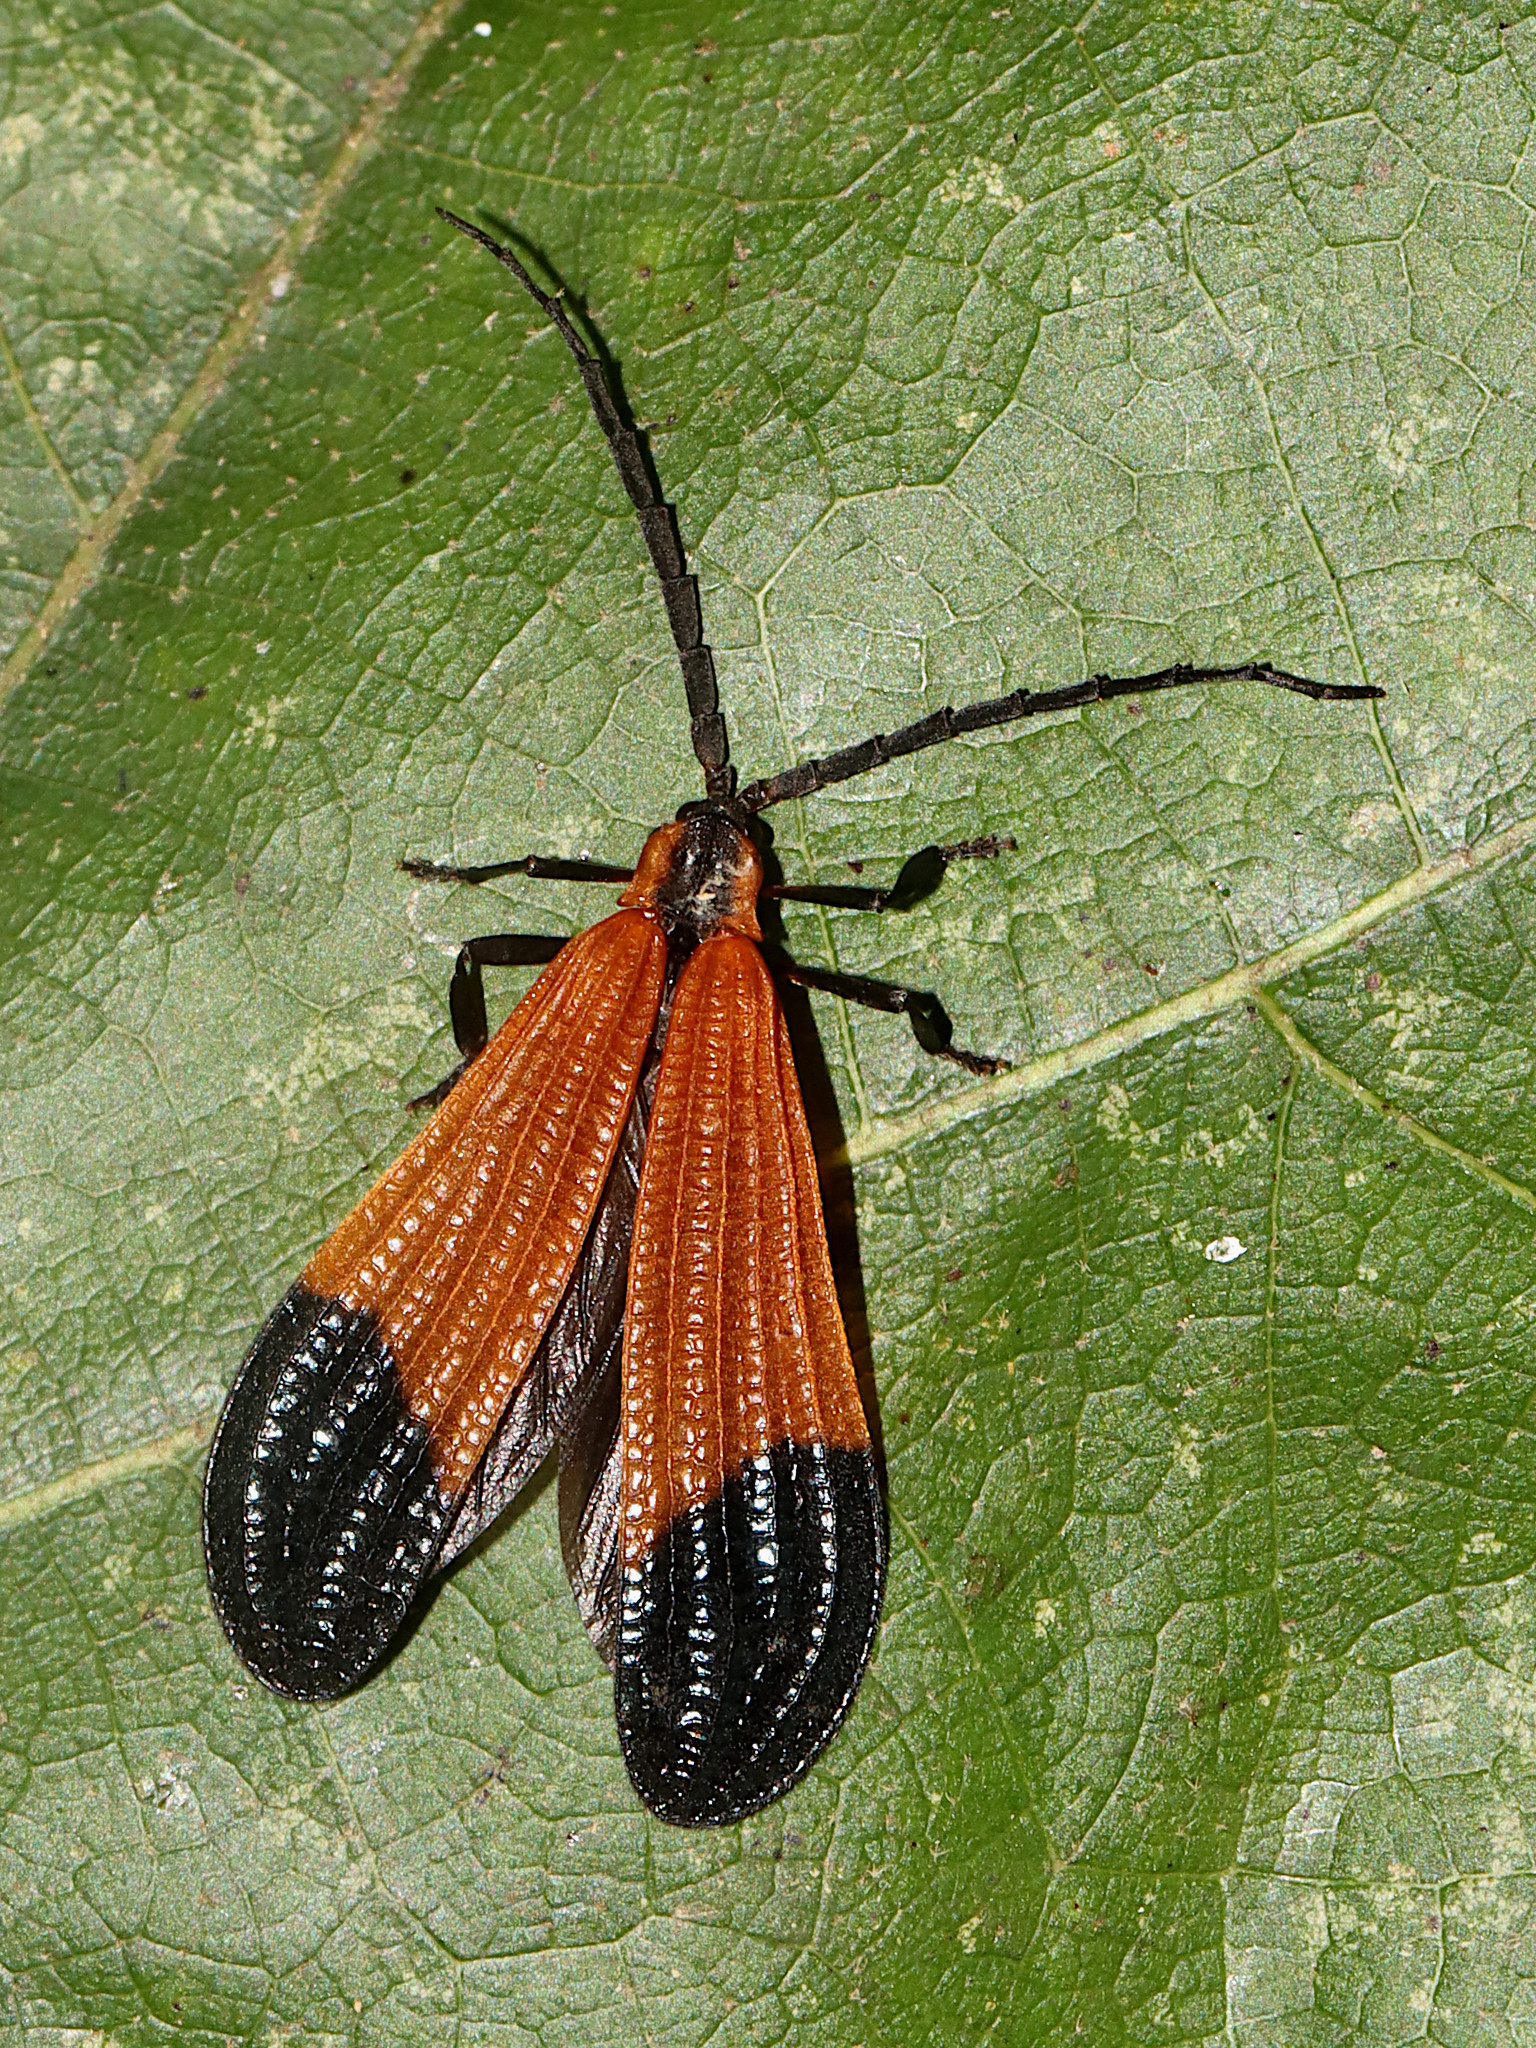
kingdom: Animalia
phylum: Arthropoda
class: Insecta
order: Coleoptera
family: Lycidae
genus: Calopteron
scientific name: Calopteron terminale
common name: End band net-winged beetle
